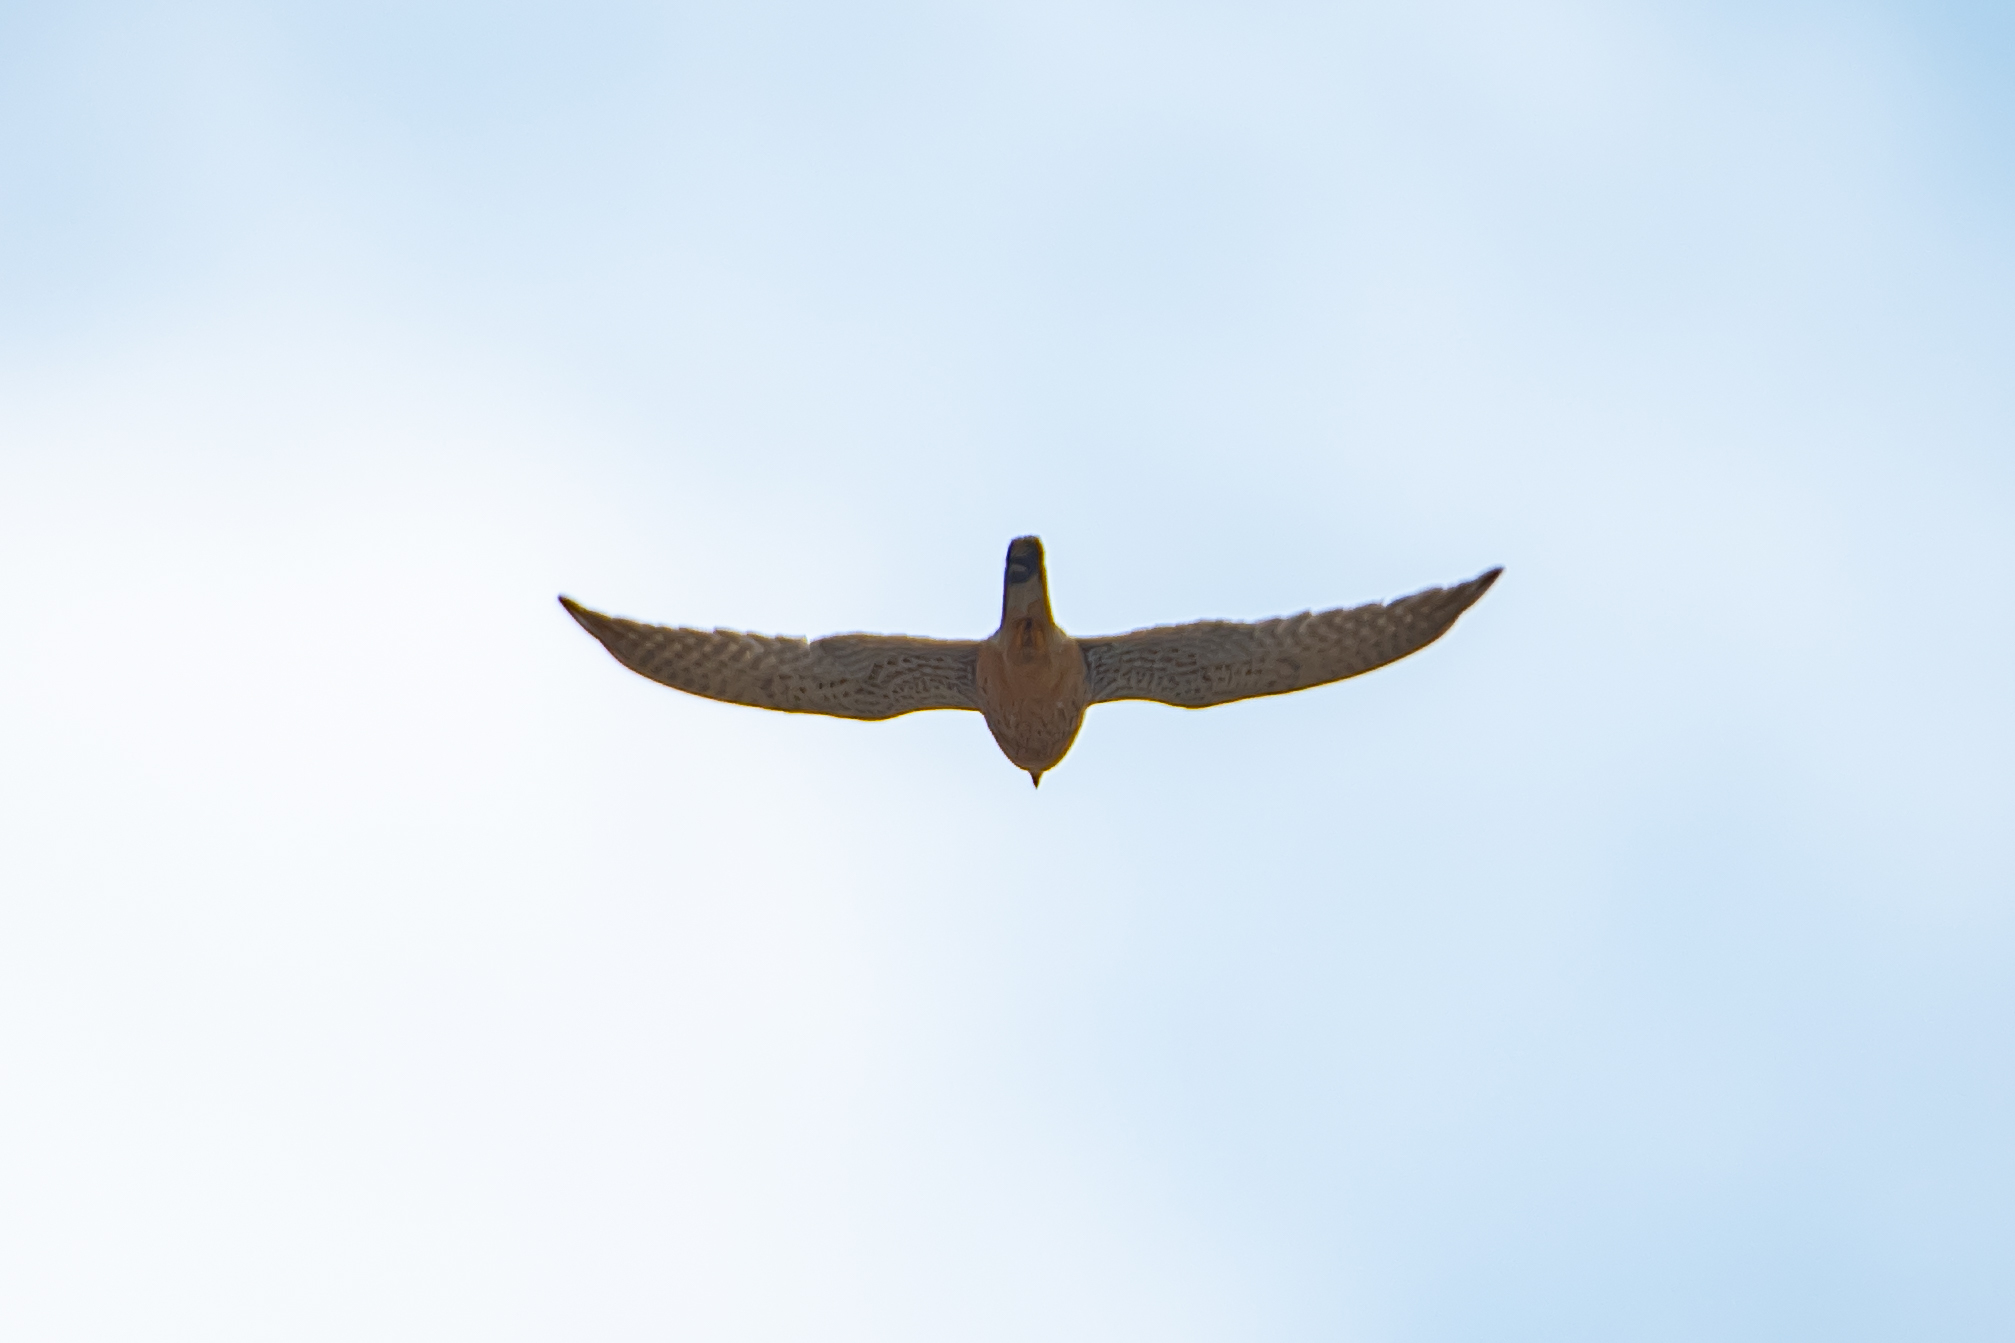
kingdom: Animalia
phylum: Chordata
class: Aves
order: Falconiformes
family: Falconidae
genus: Falco
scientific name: Falco tinnunculus
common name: Common kestrel
